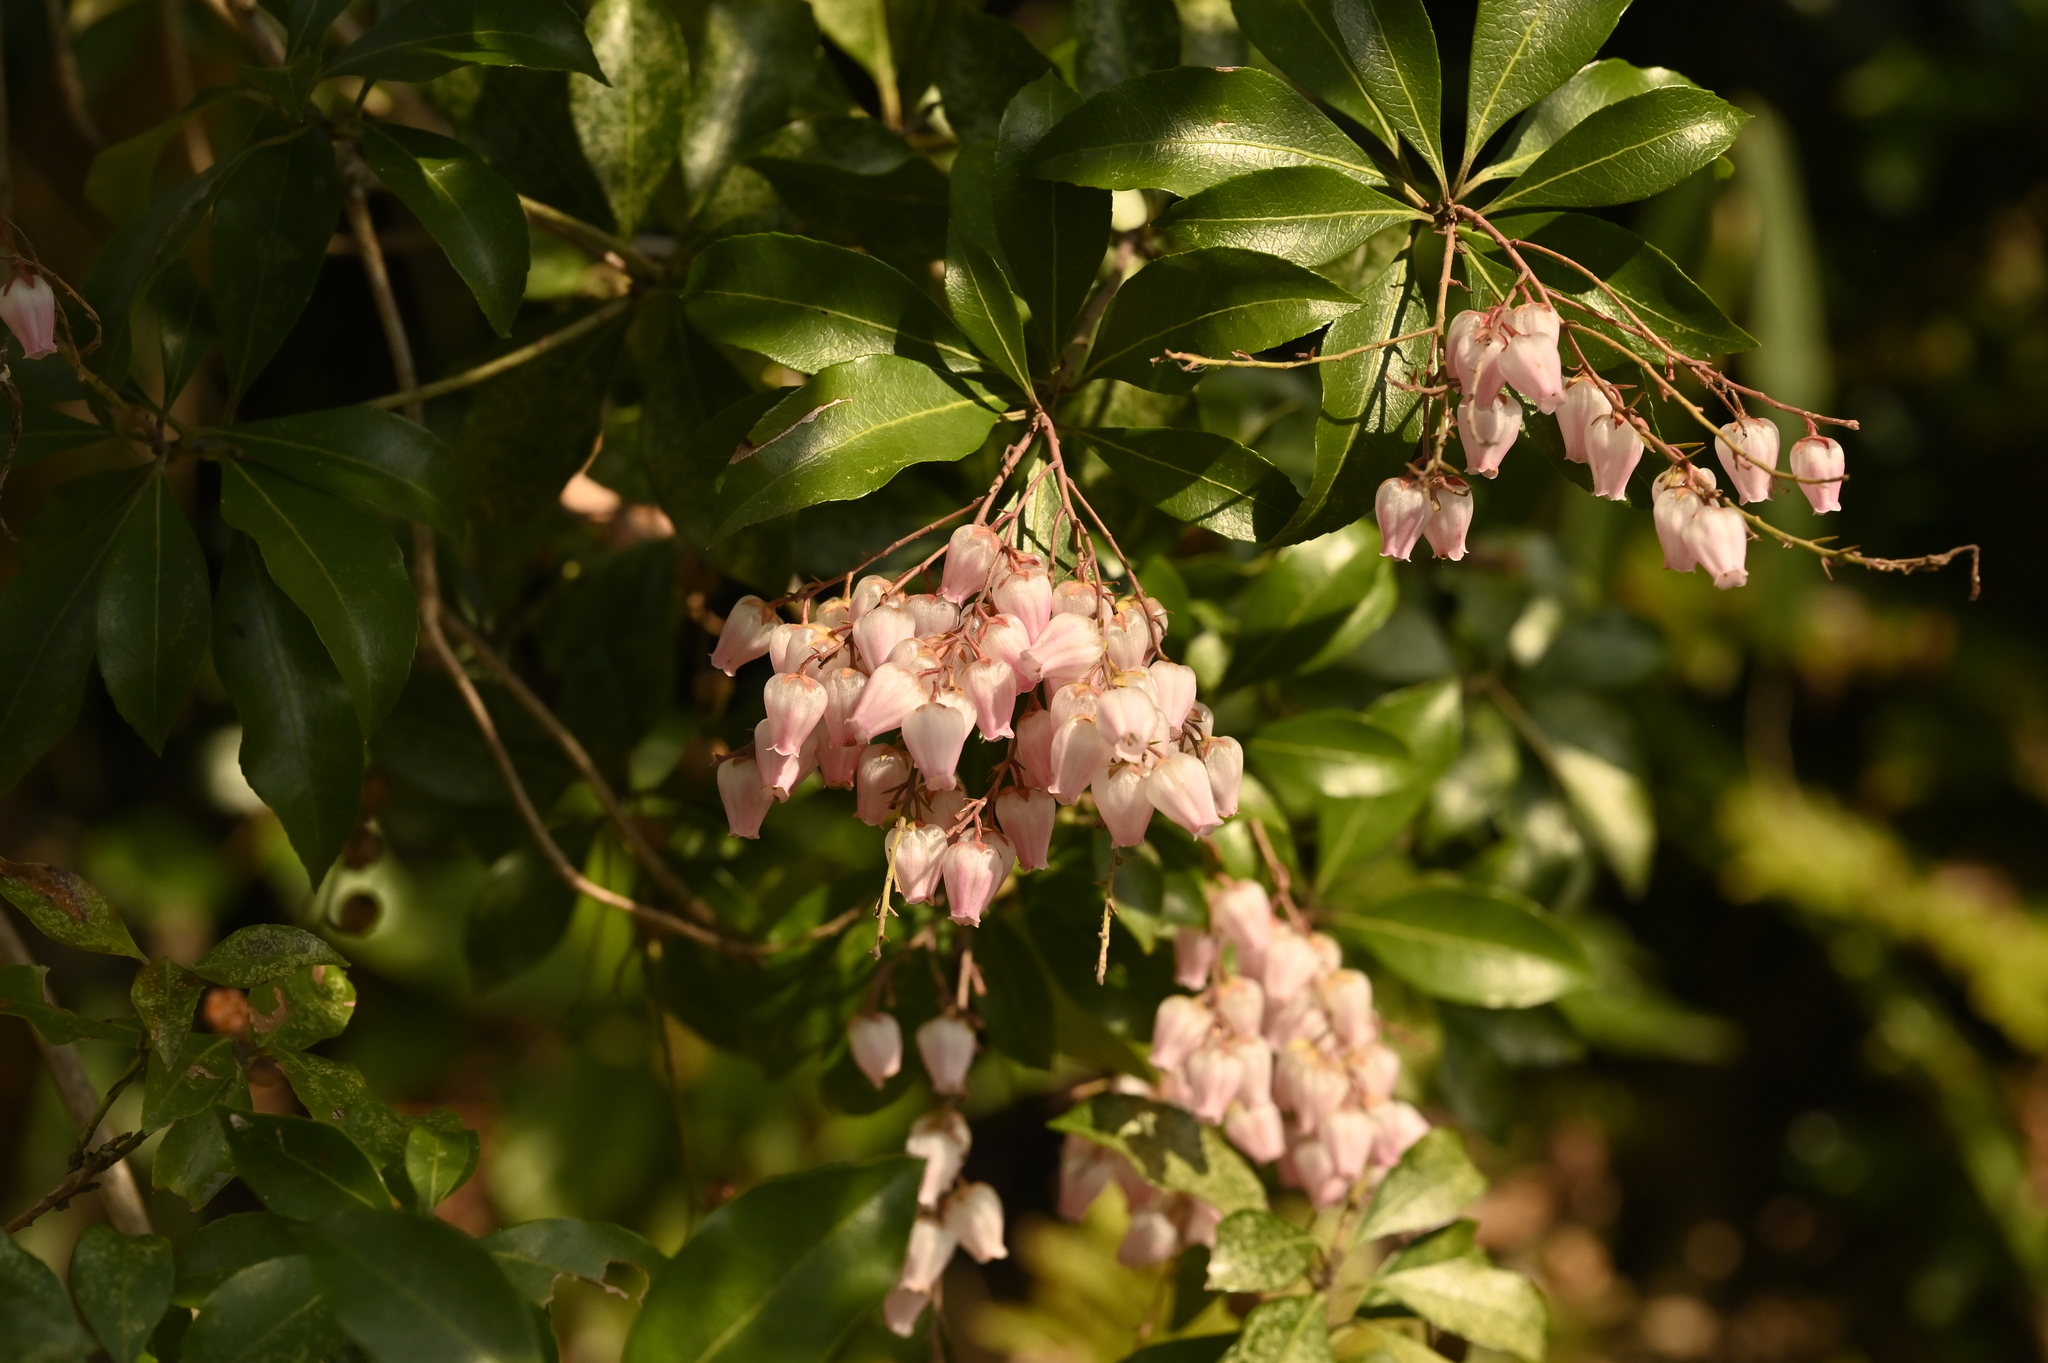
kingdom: Plantae
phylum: Tracheophyta
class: Magnoliopsida
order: Ericales
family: Ericaceae
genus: Pieris
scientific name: Pieris japonica
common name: Japanese pieris
